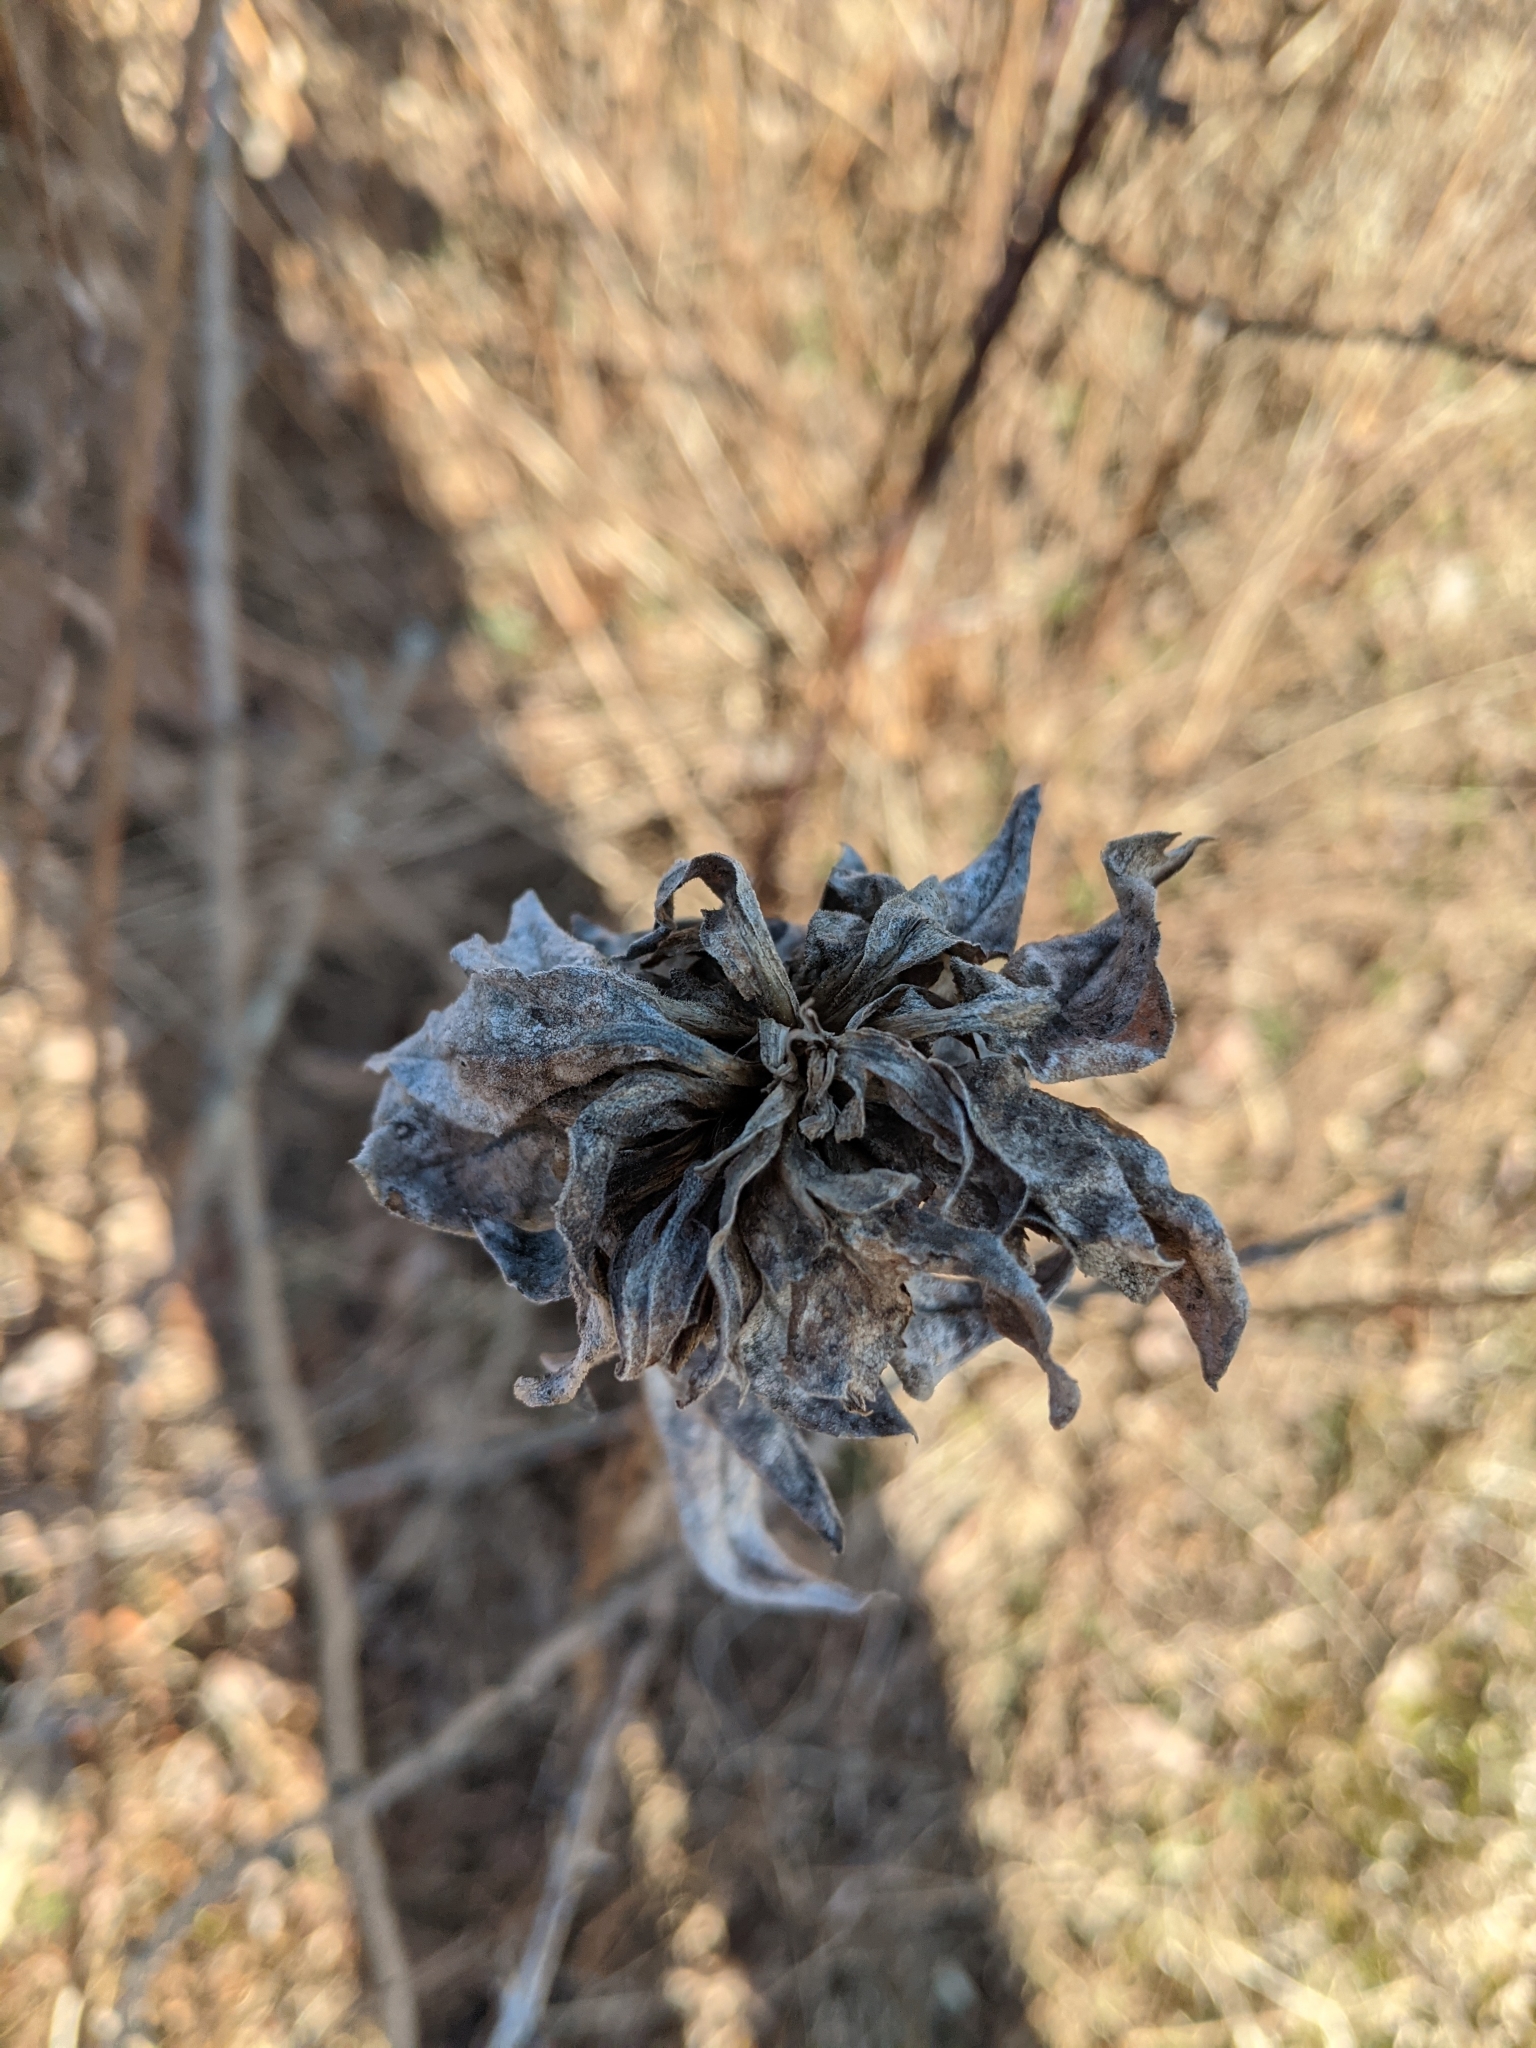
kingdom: Animalia
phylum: Arthropoda
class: Insecta
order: Diptera
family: Cecidomyiidae
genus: Rhopalomyia
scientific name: Rhopalomyia solidaginis
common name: Goldenrod bunch gall midge
